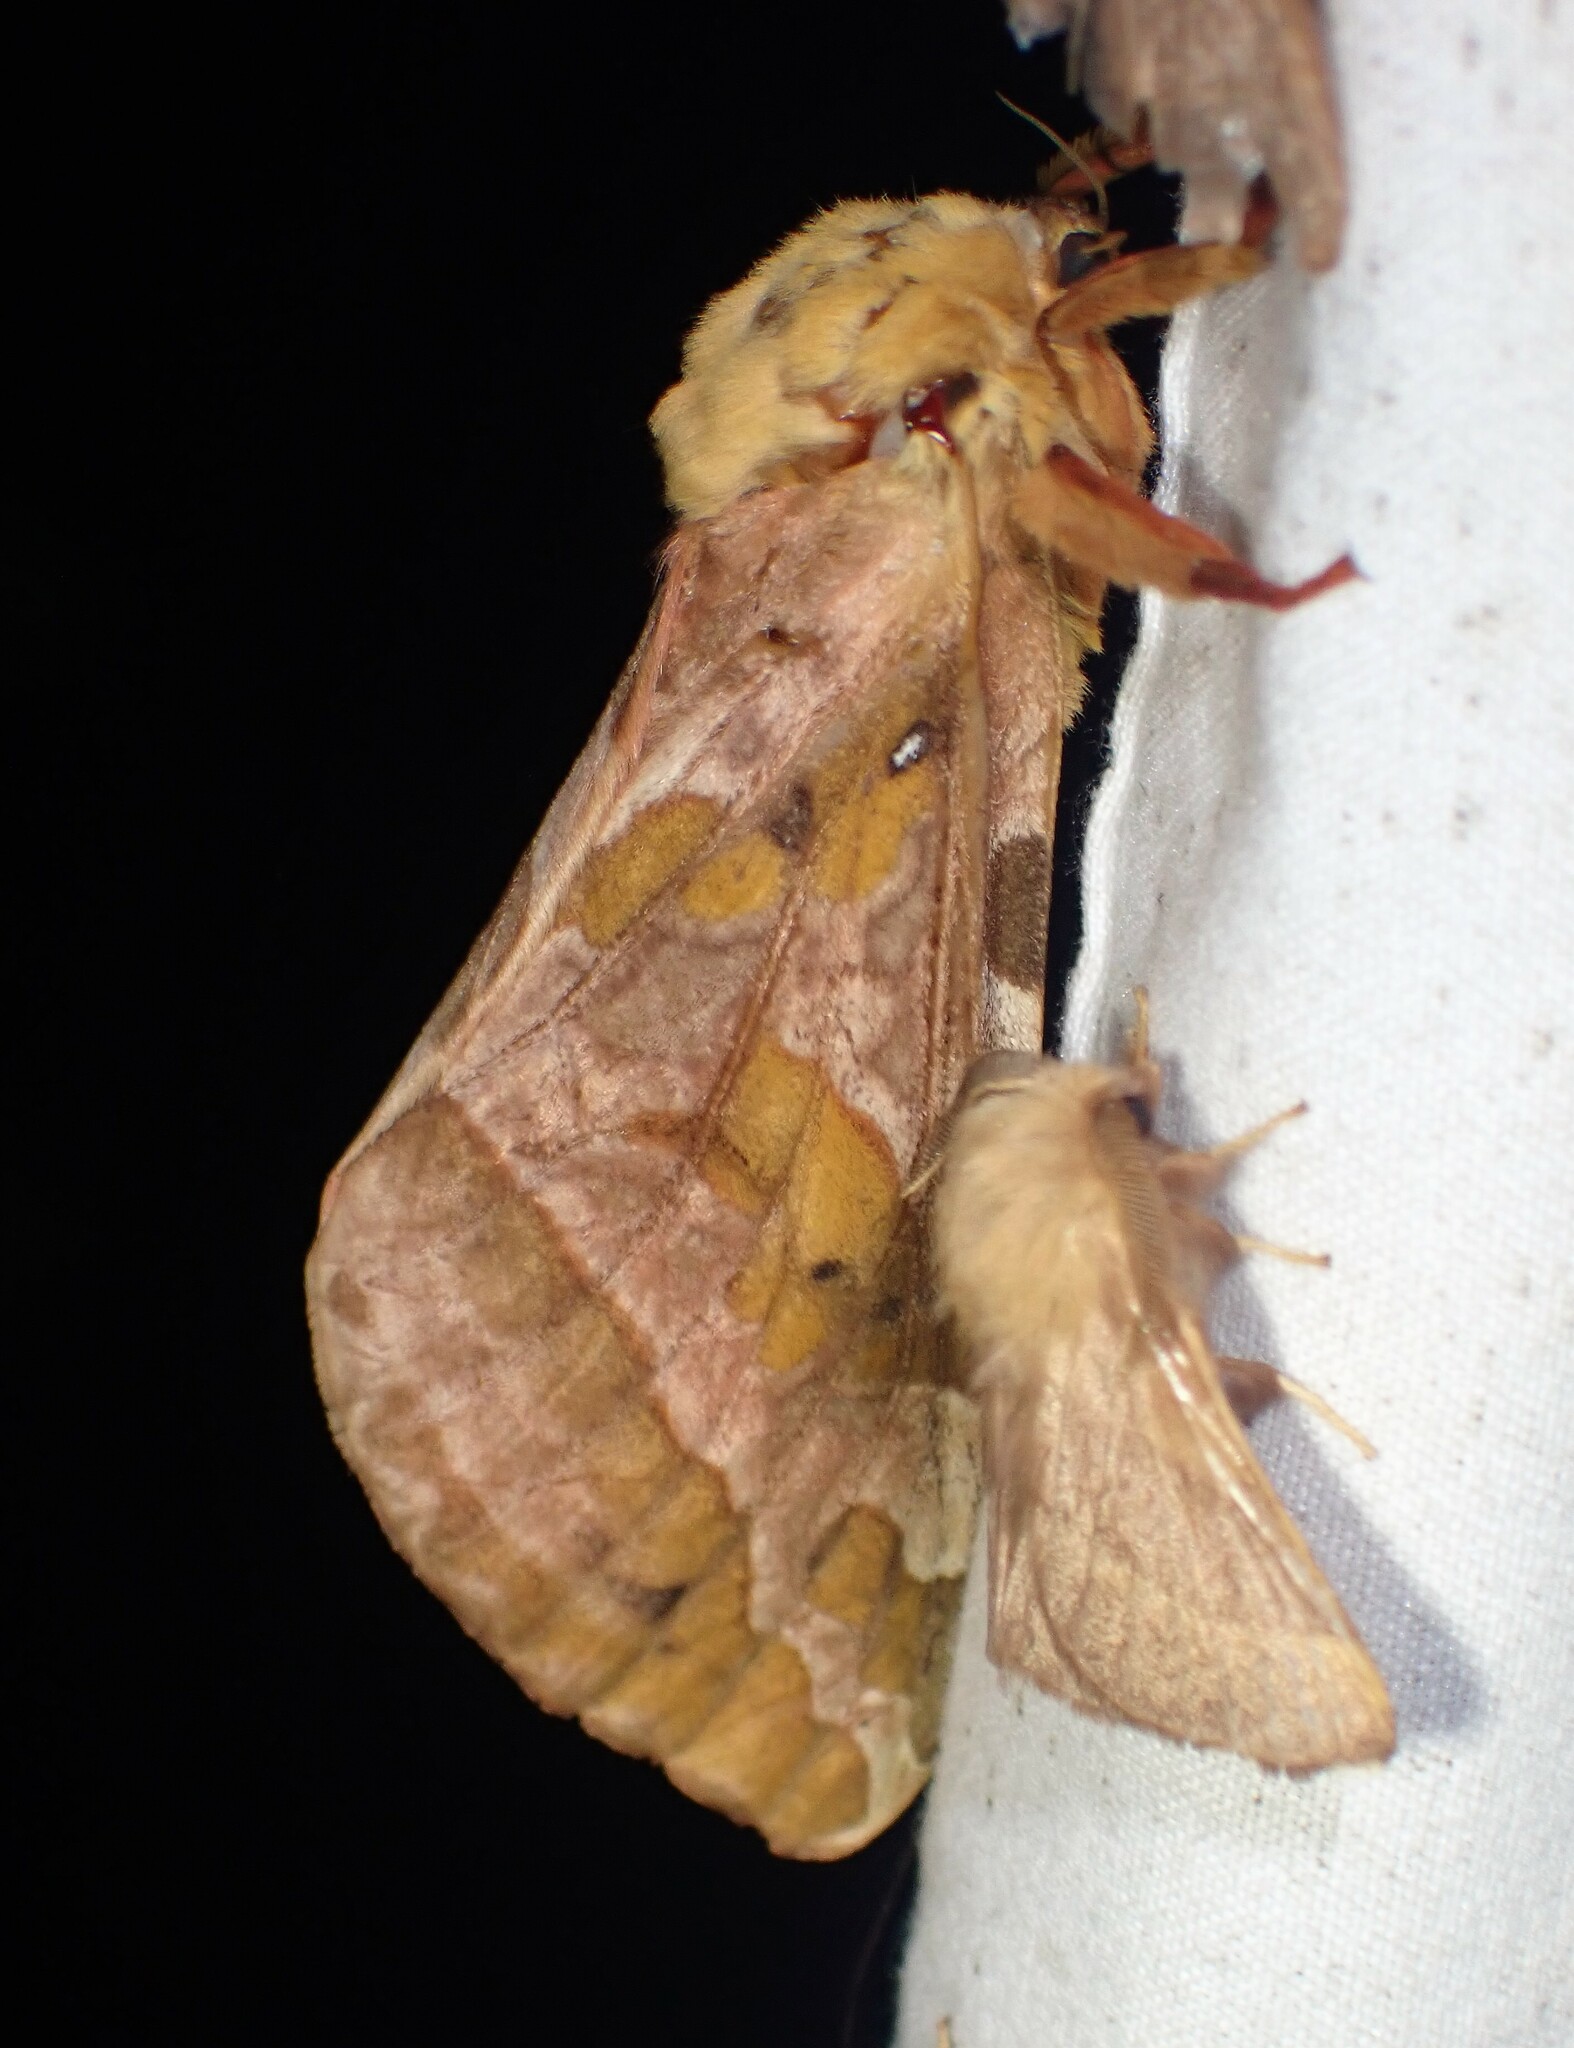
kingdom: Animalia
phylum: Arthropoda
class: Insecta
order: Lepidoptera
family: Hepialidae
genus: Sthenopis
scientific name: Sthenopis purpurascens
